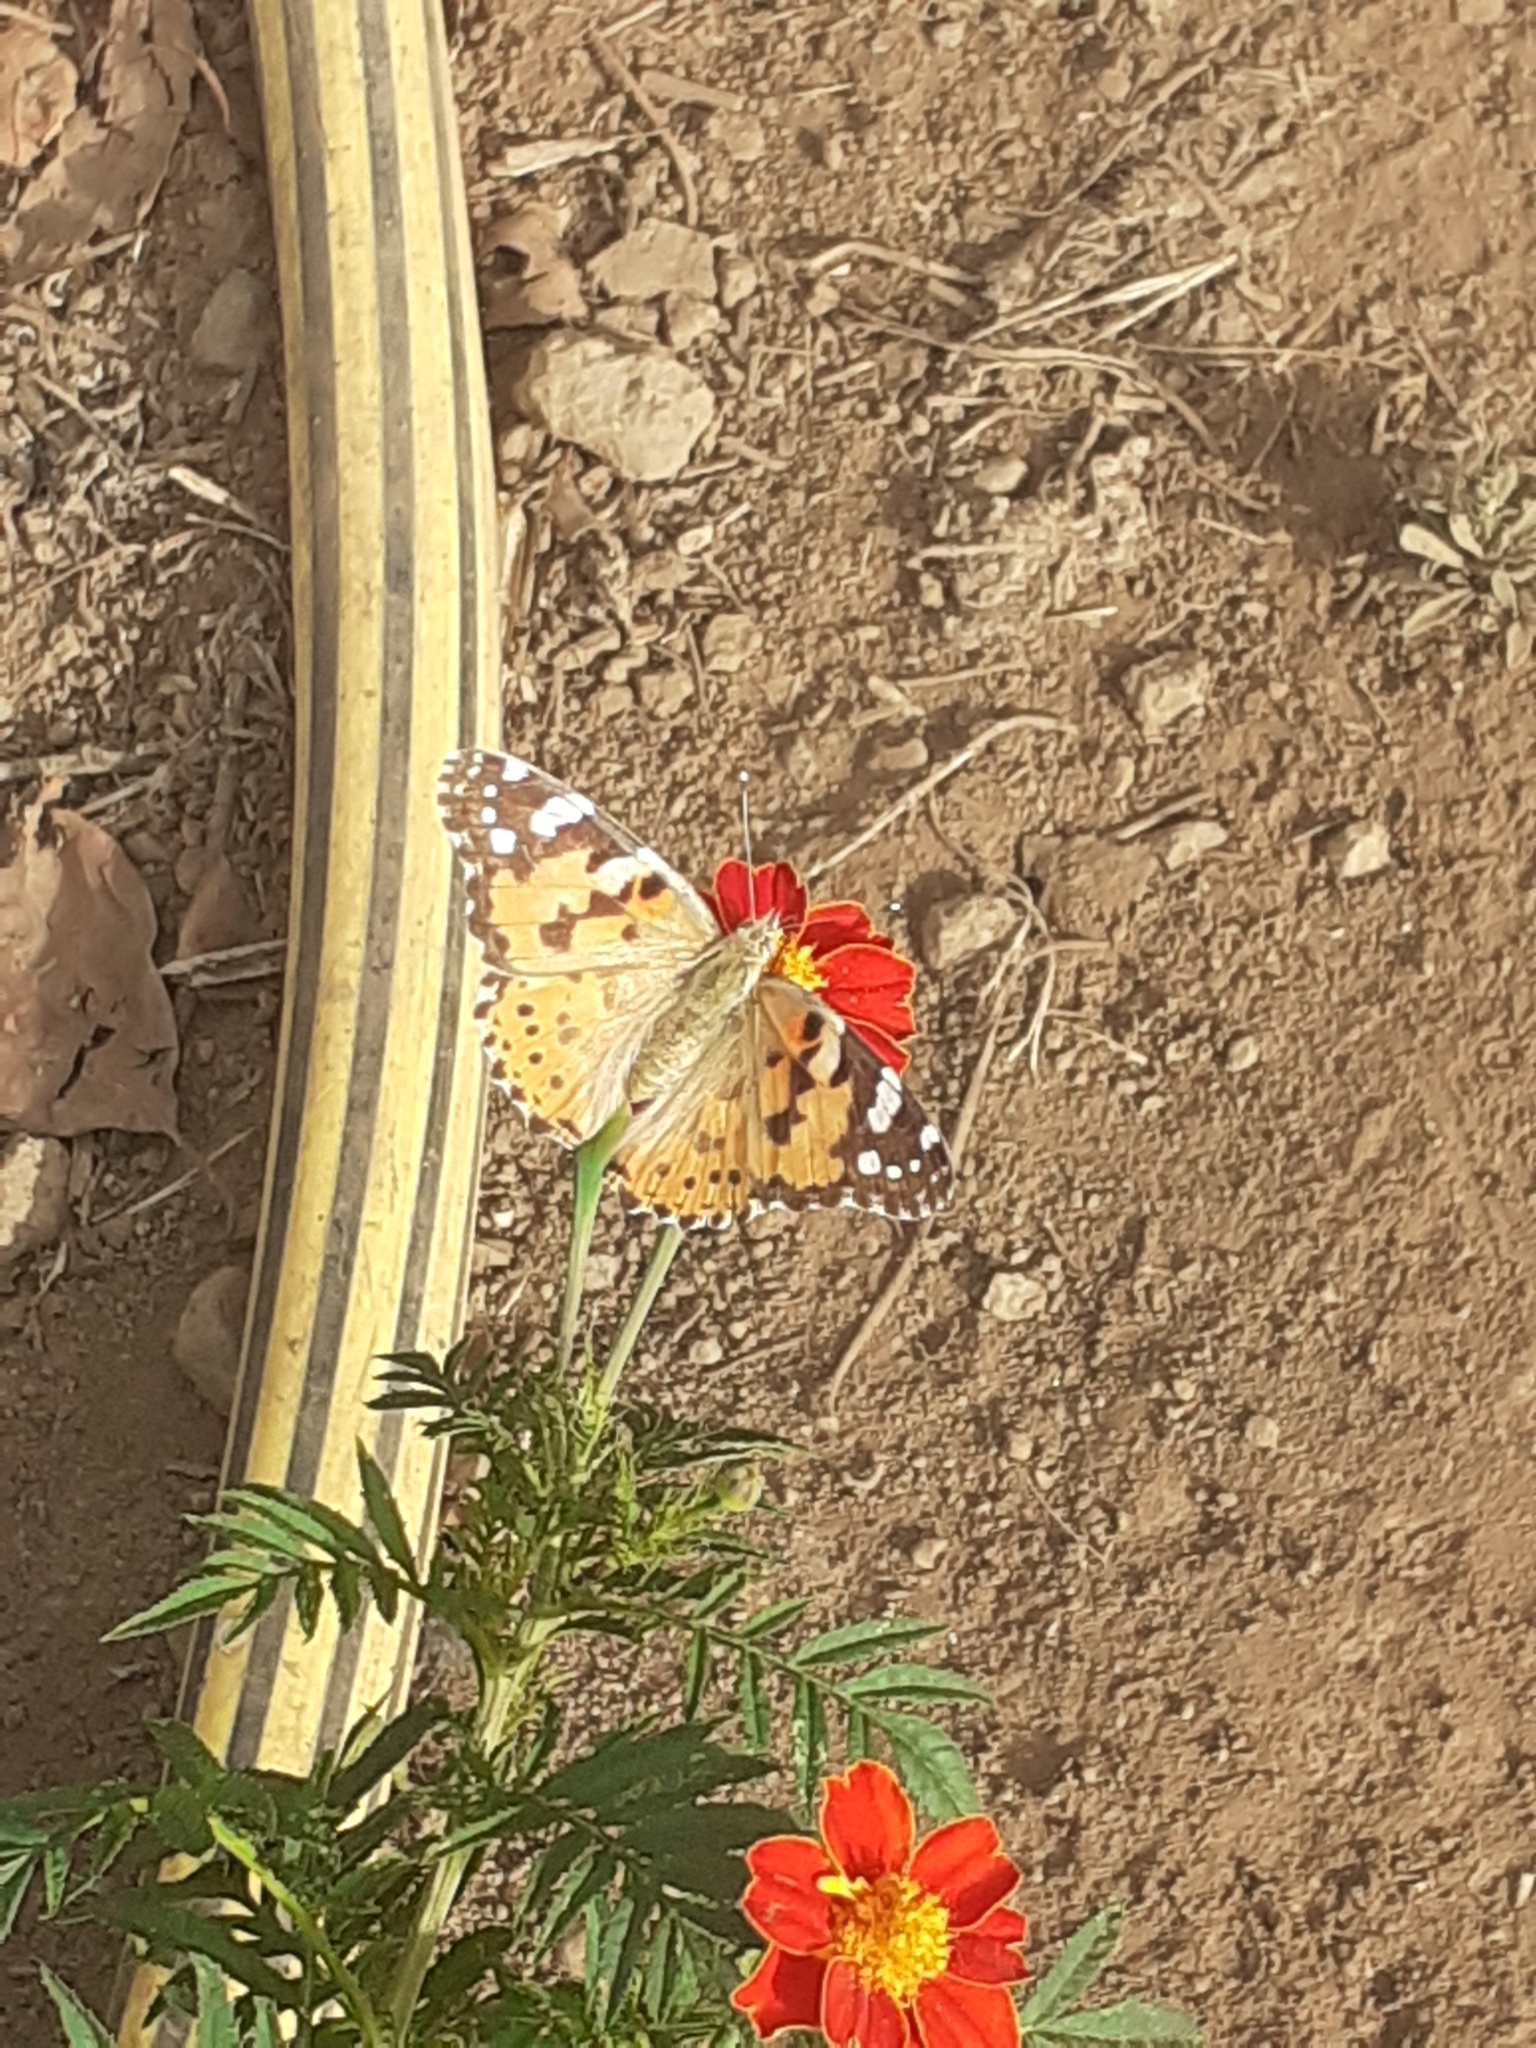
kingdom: Animalia
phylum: Arthropoda
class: Insecta
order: Lepidoptera
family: Nymphalidae
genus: Vanessa
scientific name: Vanessa cardui
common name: Painted lady
